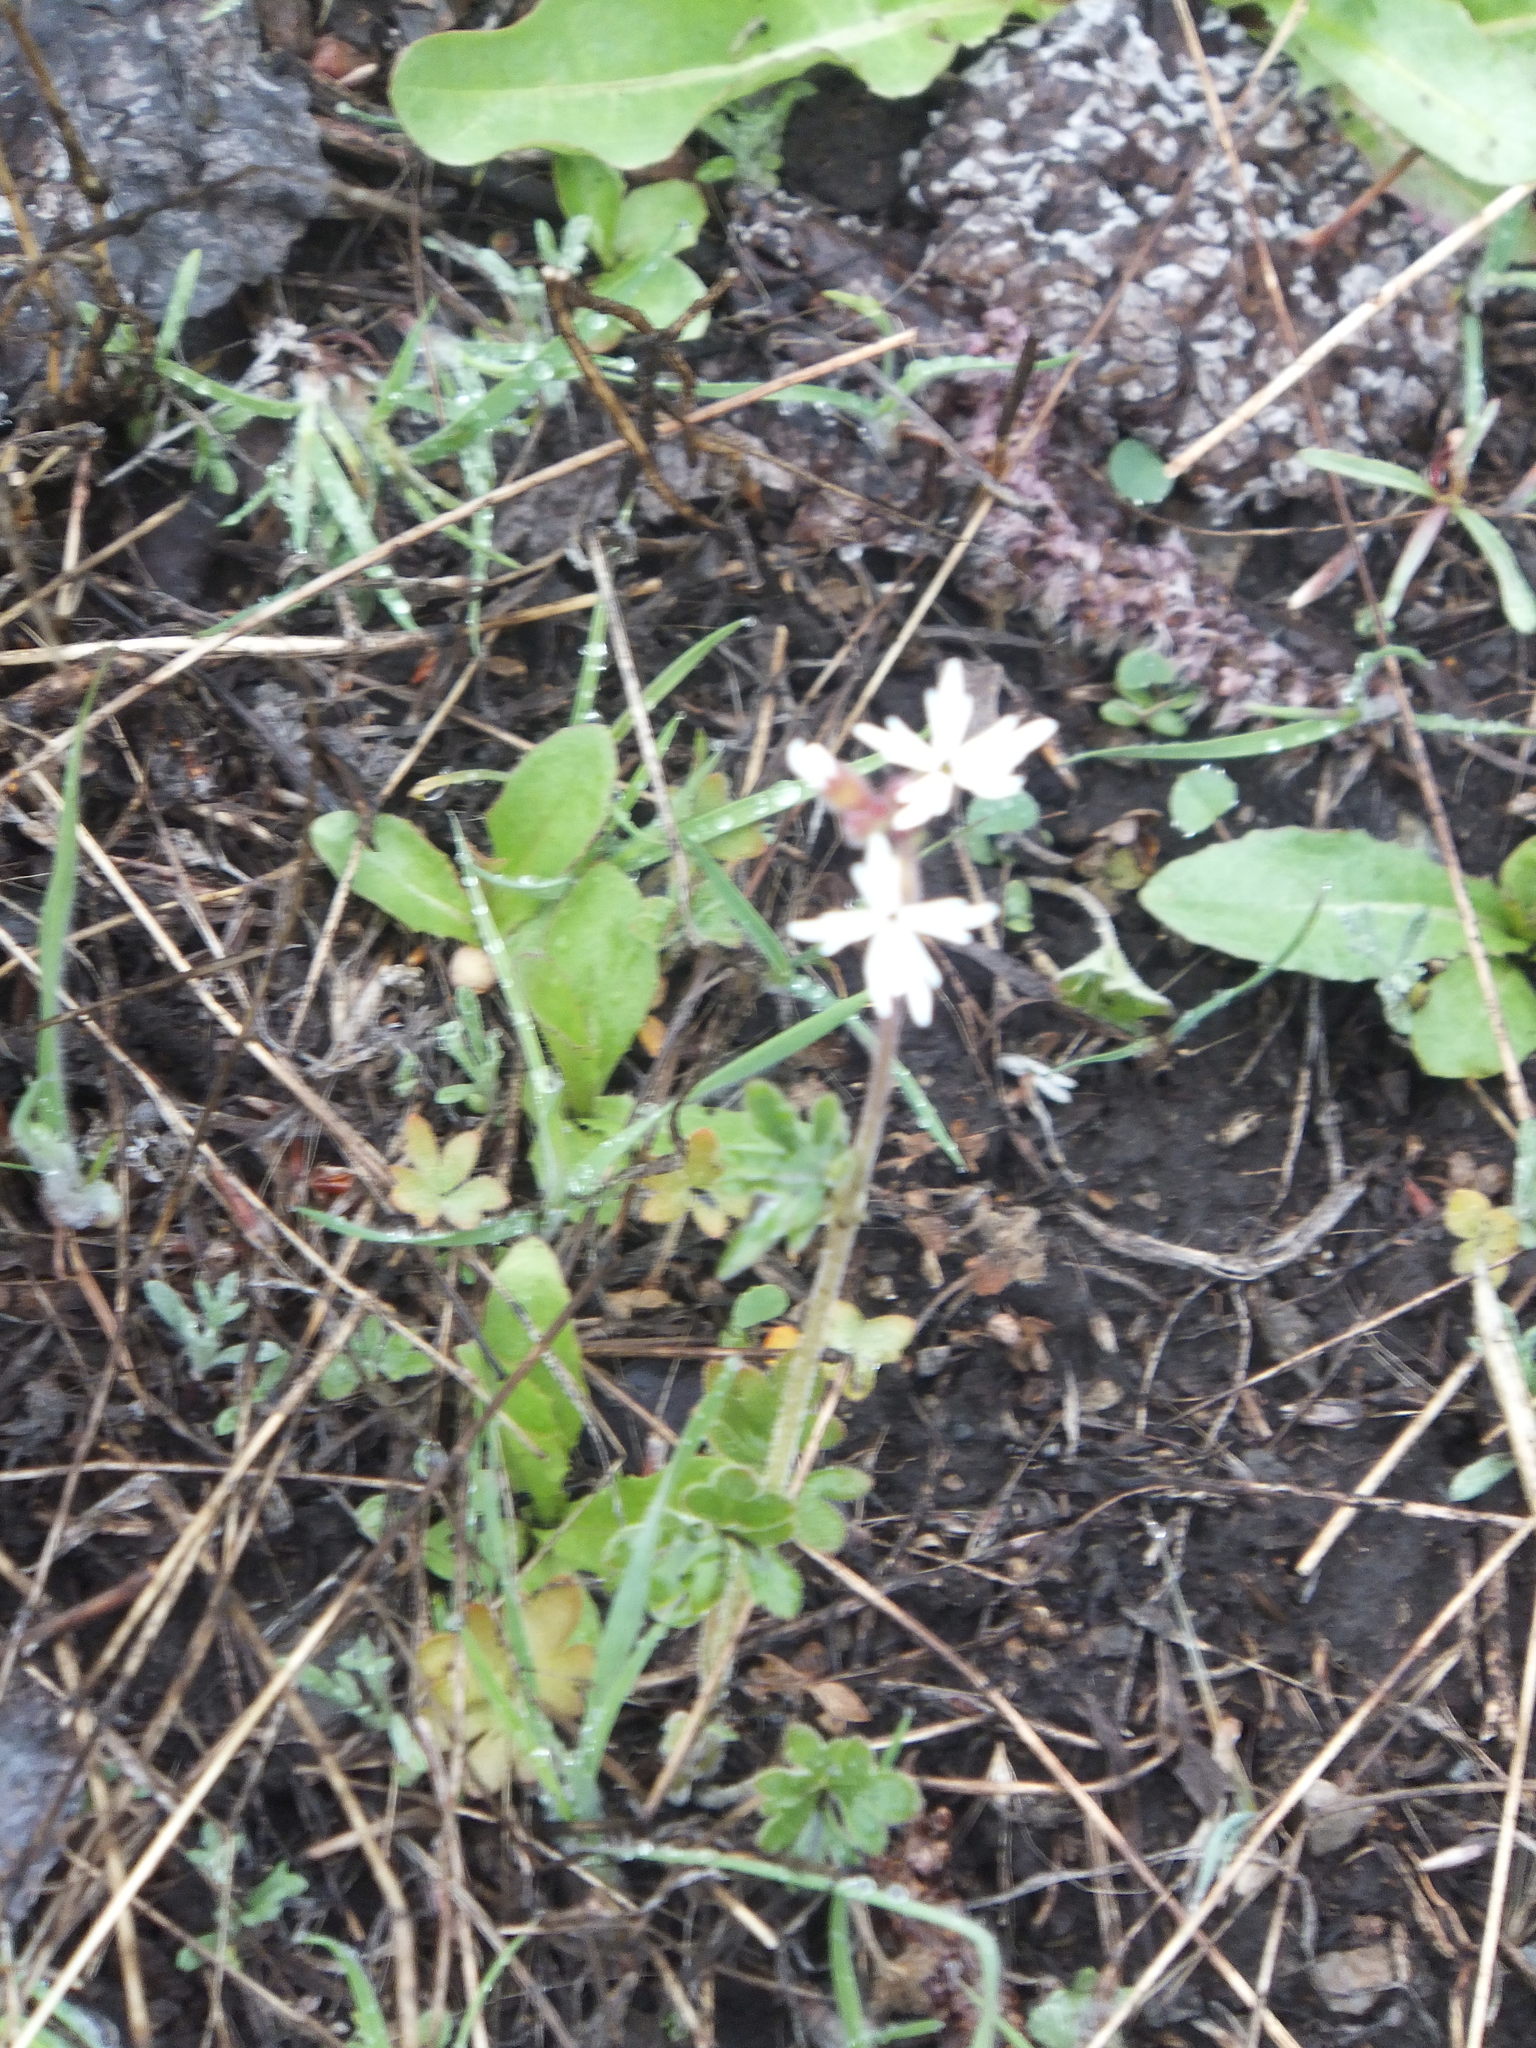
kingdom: Plantae
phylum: Tracheophyta
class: Magnoliopsida
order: Saxifragales
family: Saxifragaceae
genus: Lithophragma
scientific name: Lithophragma parviflorum
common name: Small-flowered fringe-cup
